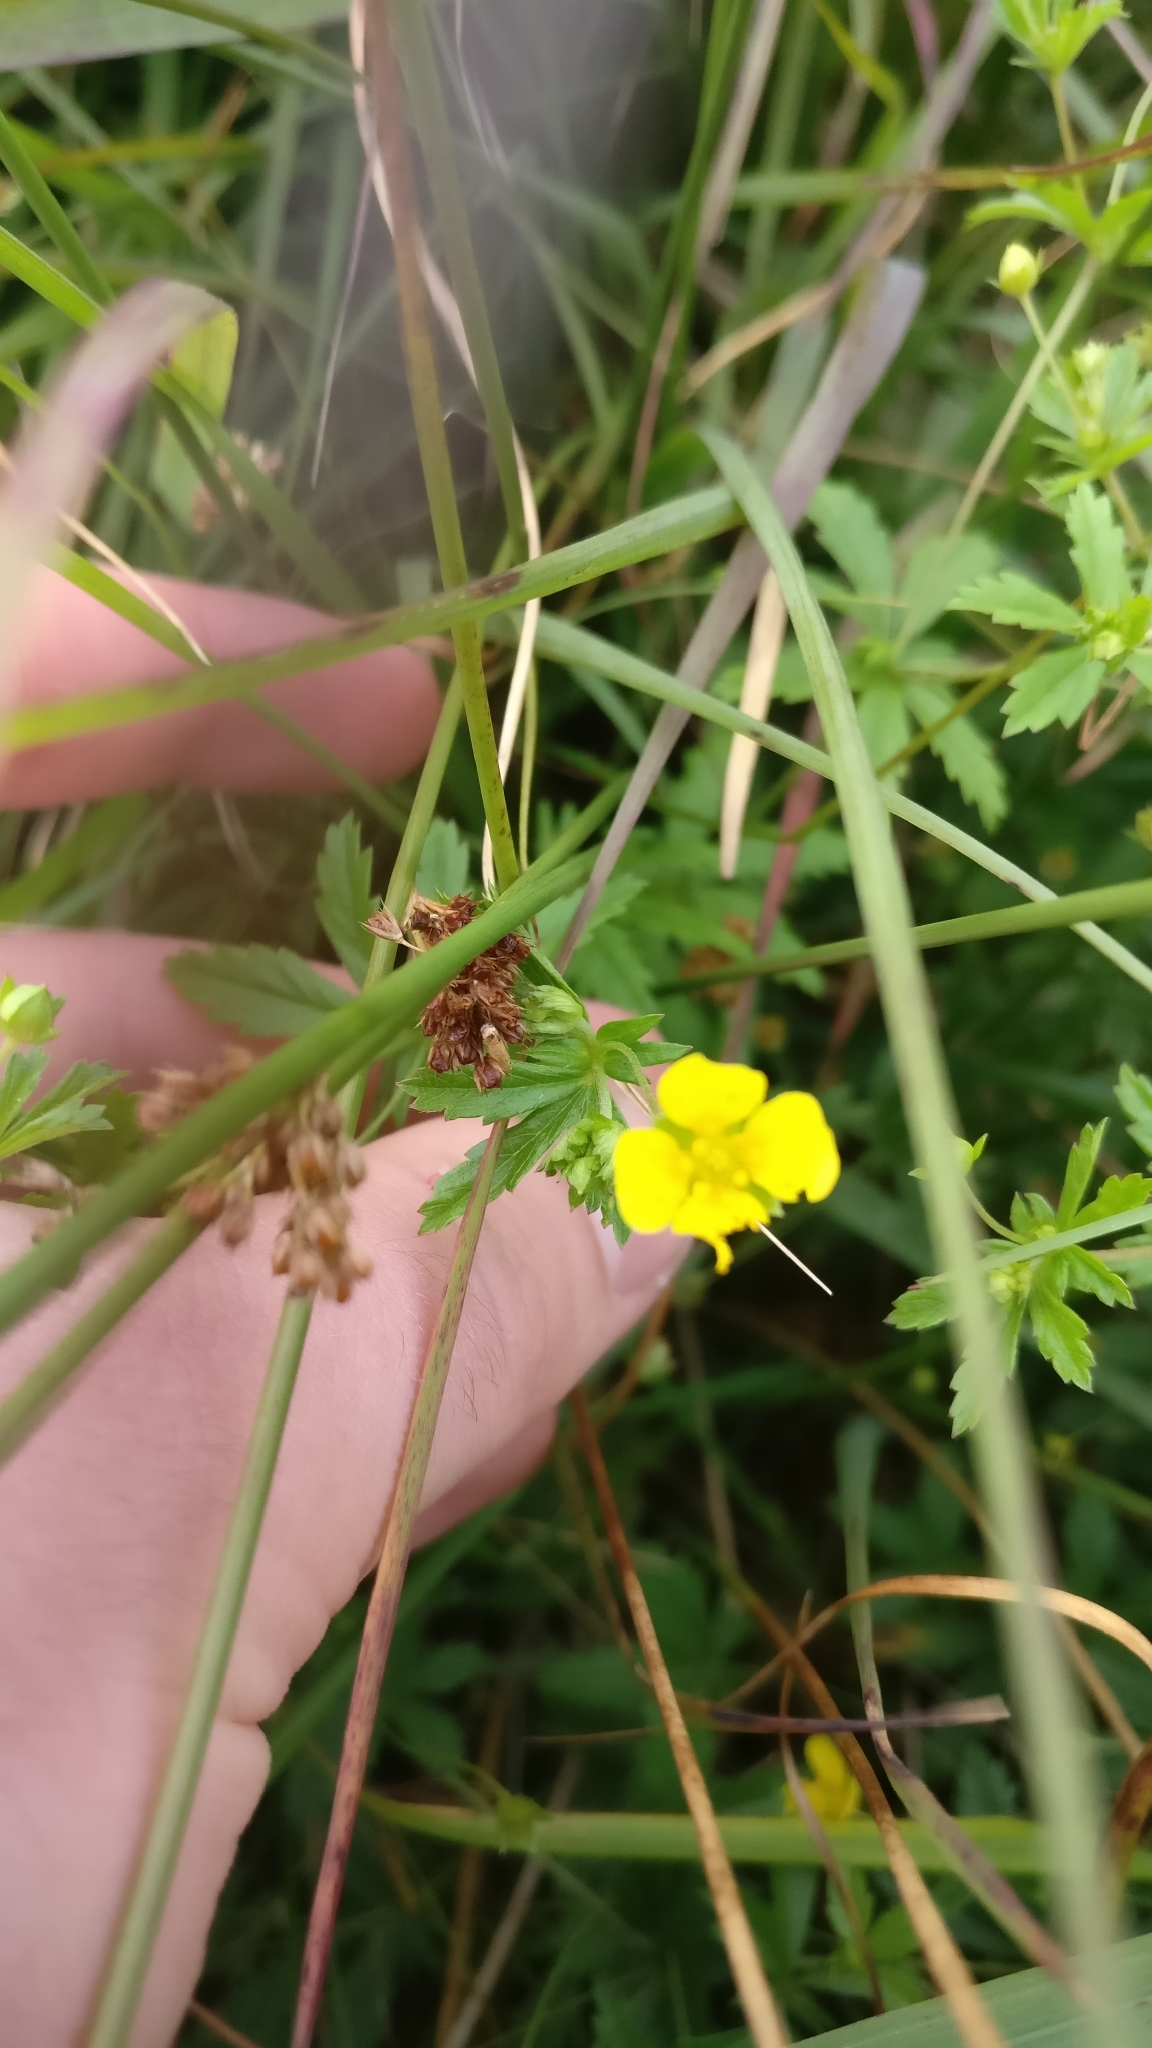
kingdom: Plantae
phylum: Tracheophyta
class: Magnoliopsida
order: Rosales
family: Rosaceae
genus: Potentilla
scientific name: Potentilla erecta
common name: Tormentil
